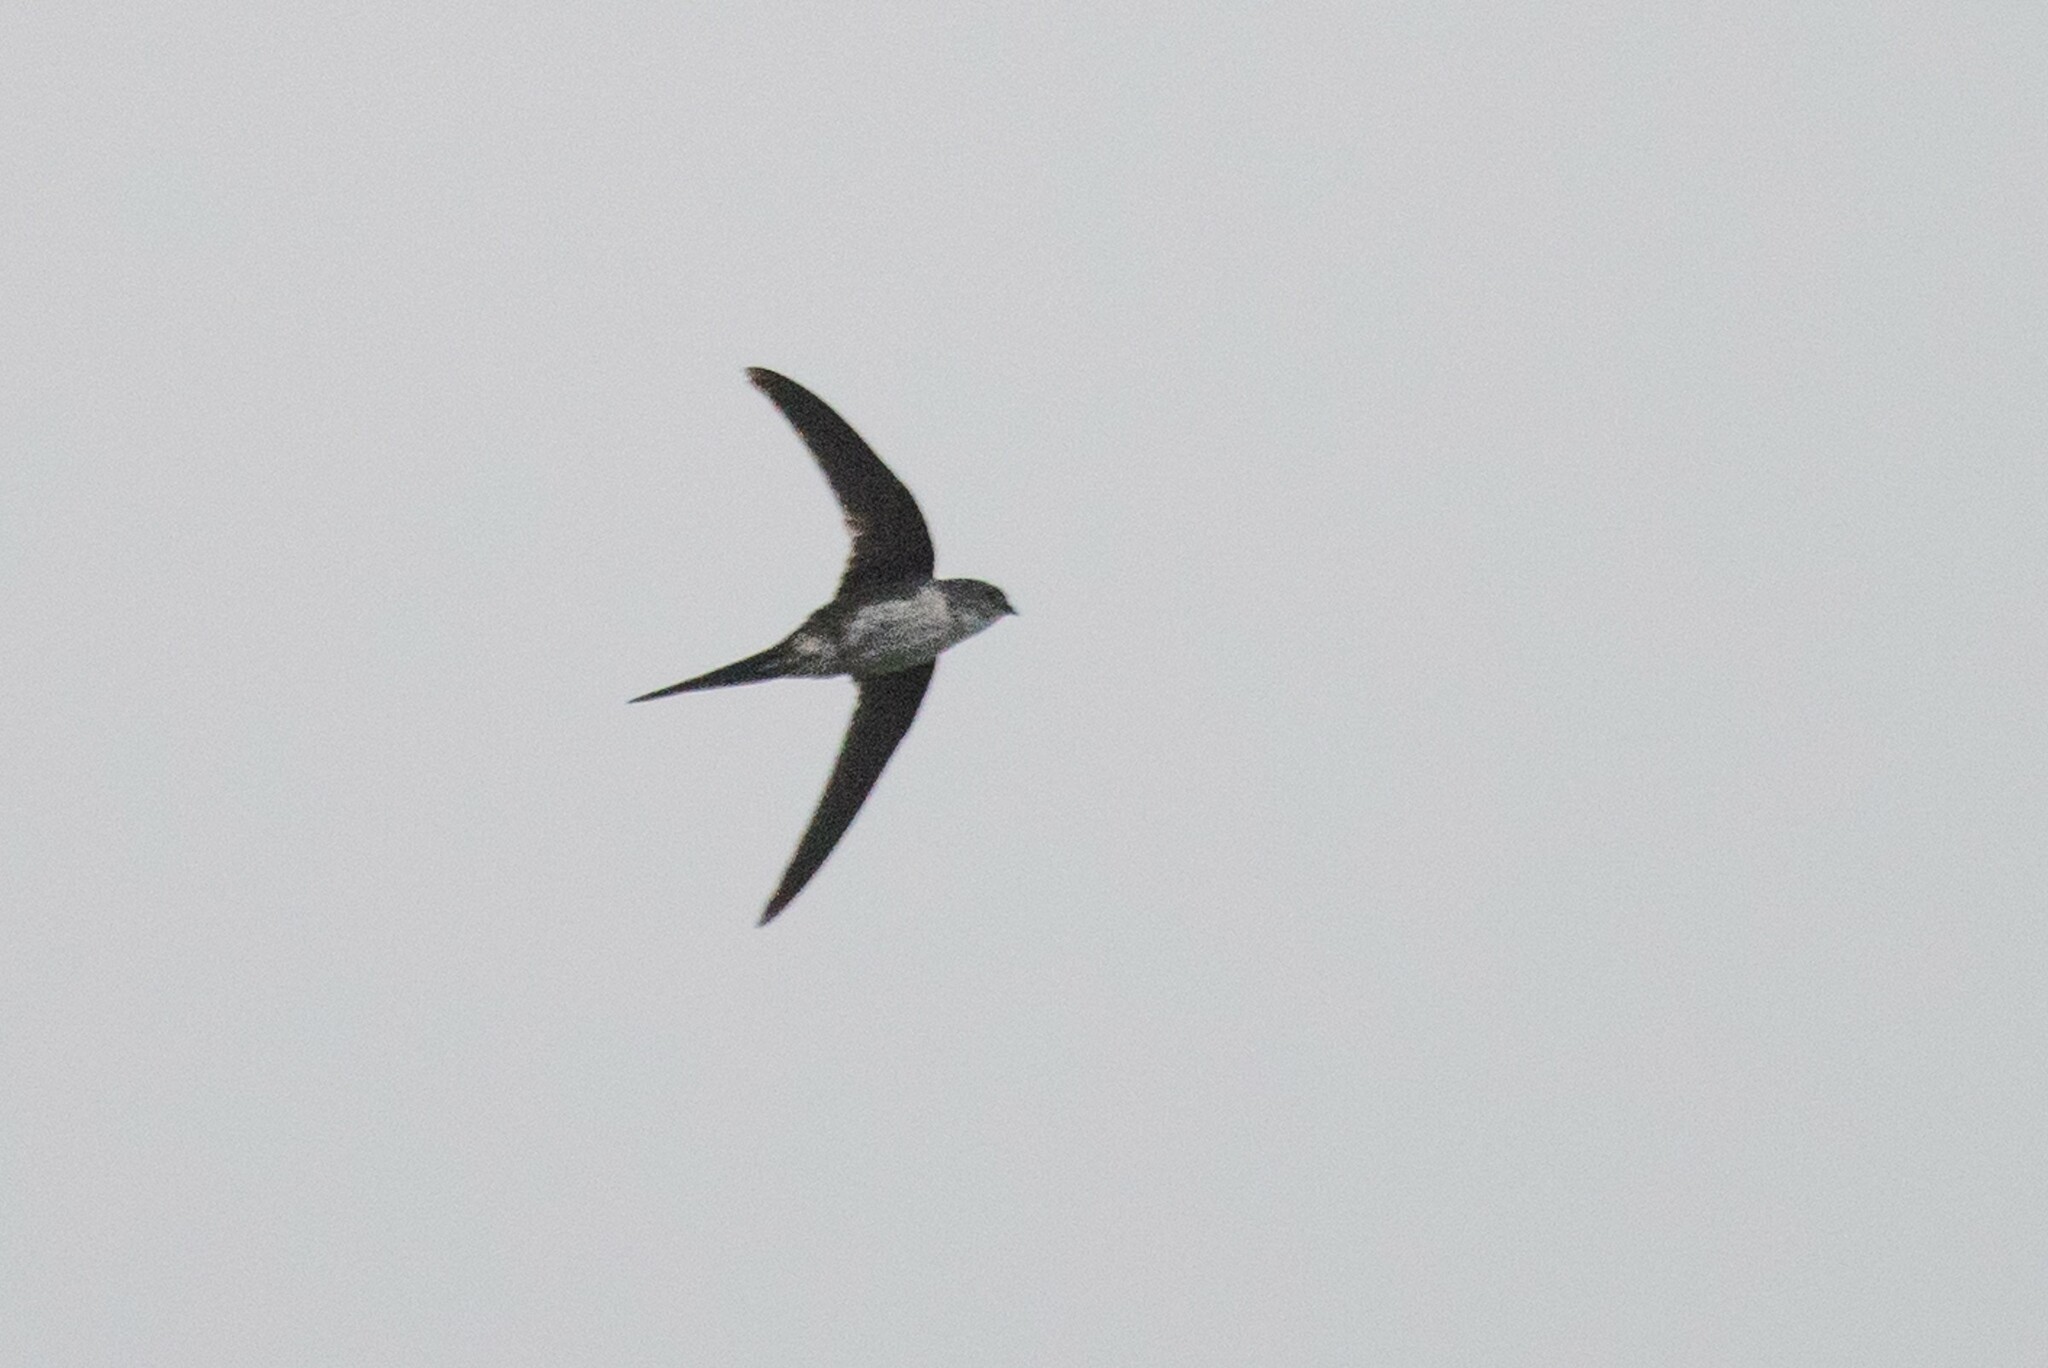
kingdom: Animalia
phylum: Chordata
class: Aves
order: Apodiformes
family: Apodidae
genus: Tachornis
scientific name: Tachornis squamata
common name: Neotropical palm swift
